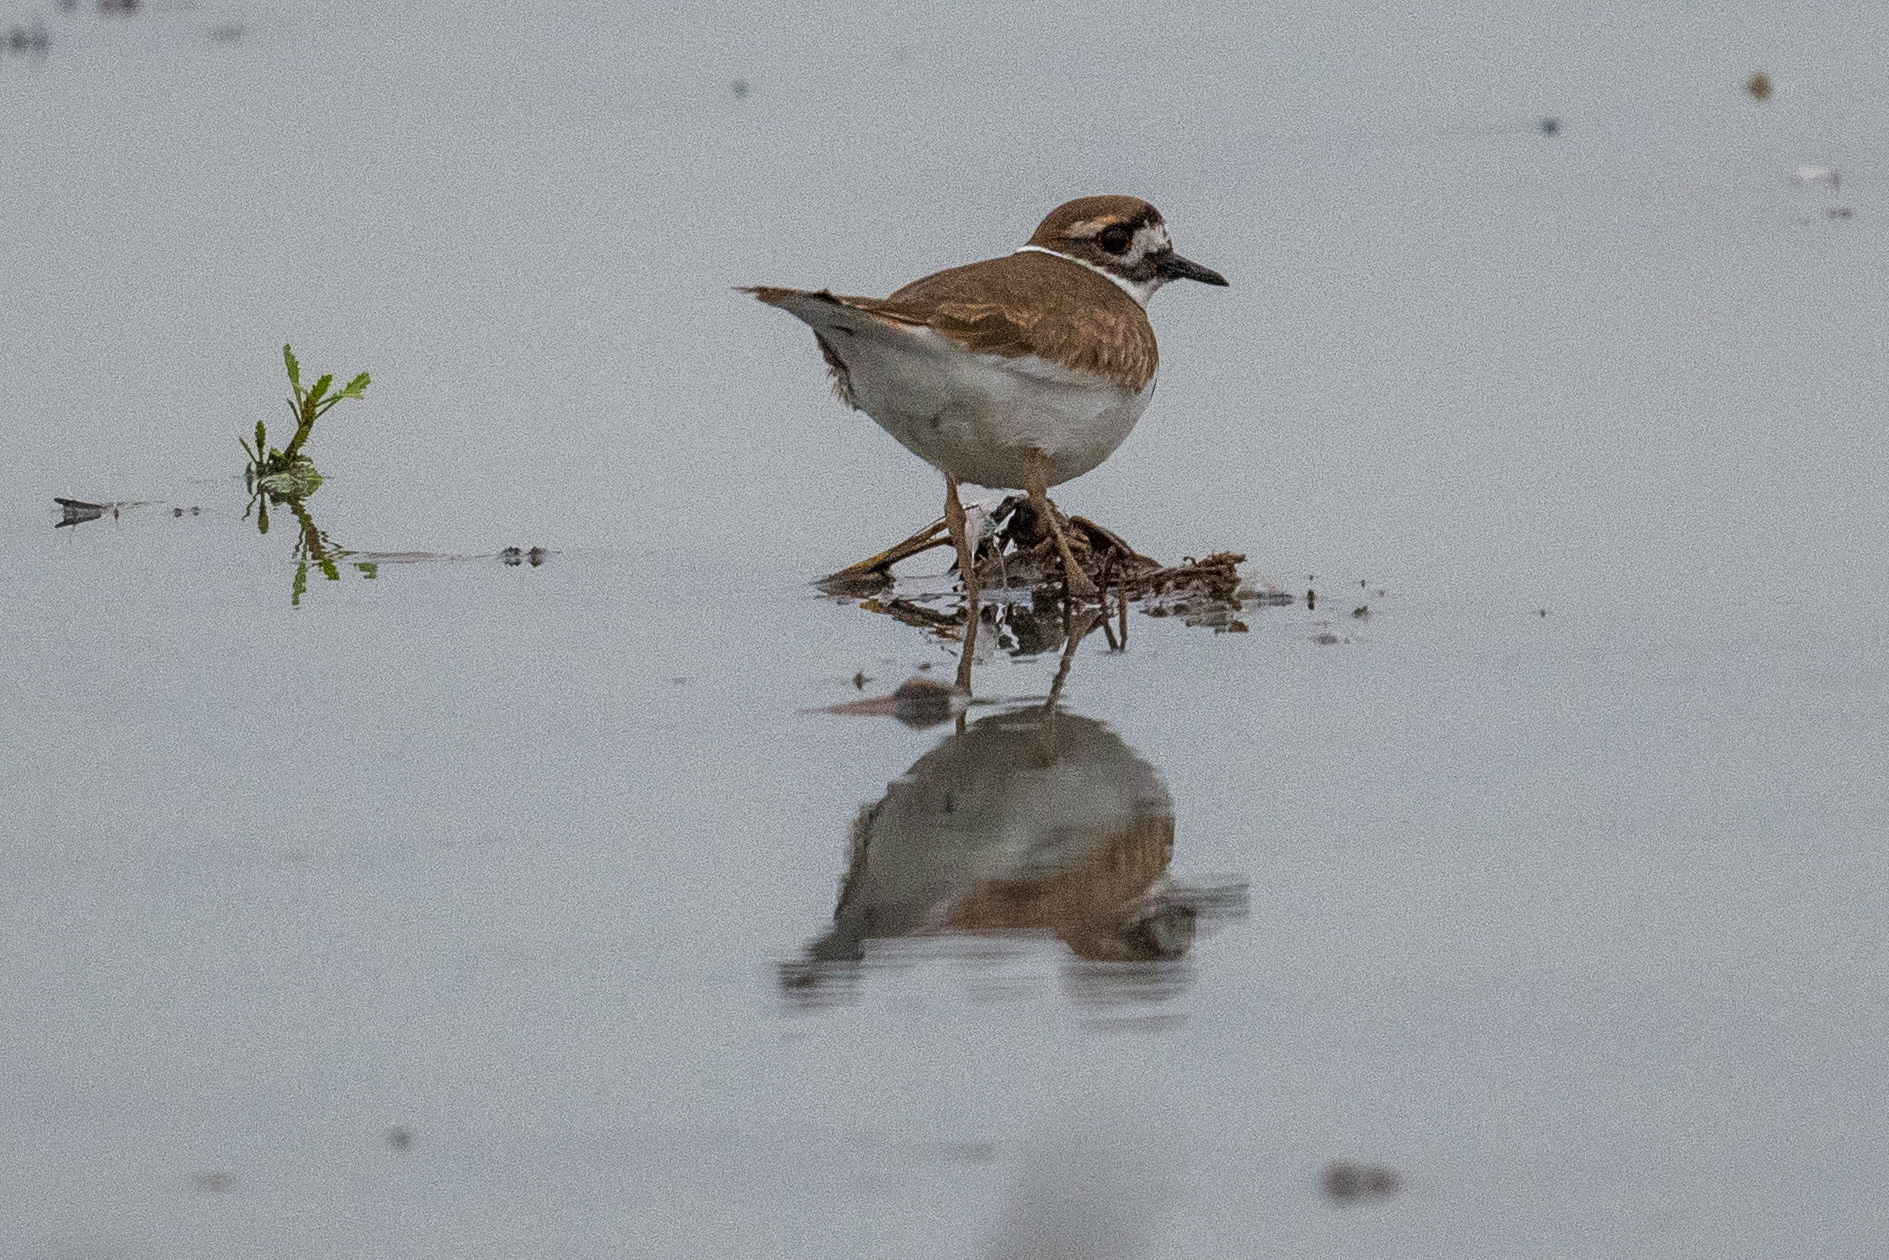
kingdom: Animalia
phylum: Chordata
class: Aves
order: Charadriiformes
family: Charadriidae
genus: Charadrius
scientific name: Charadrius vociferus
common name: Killdeer
